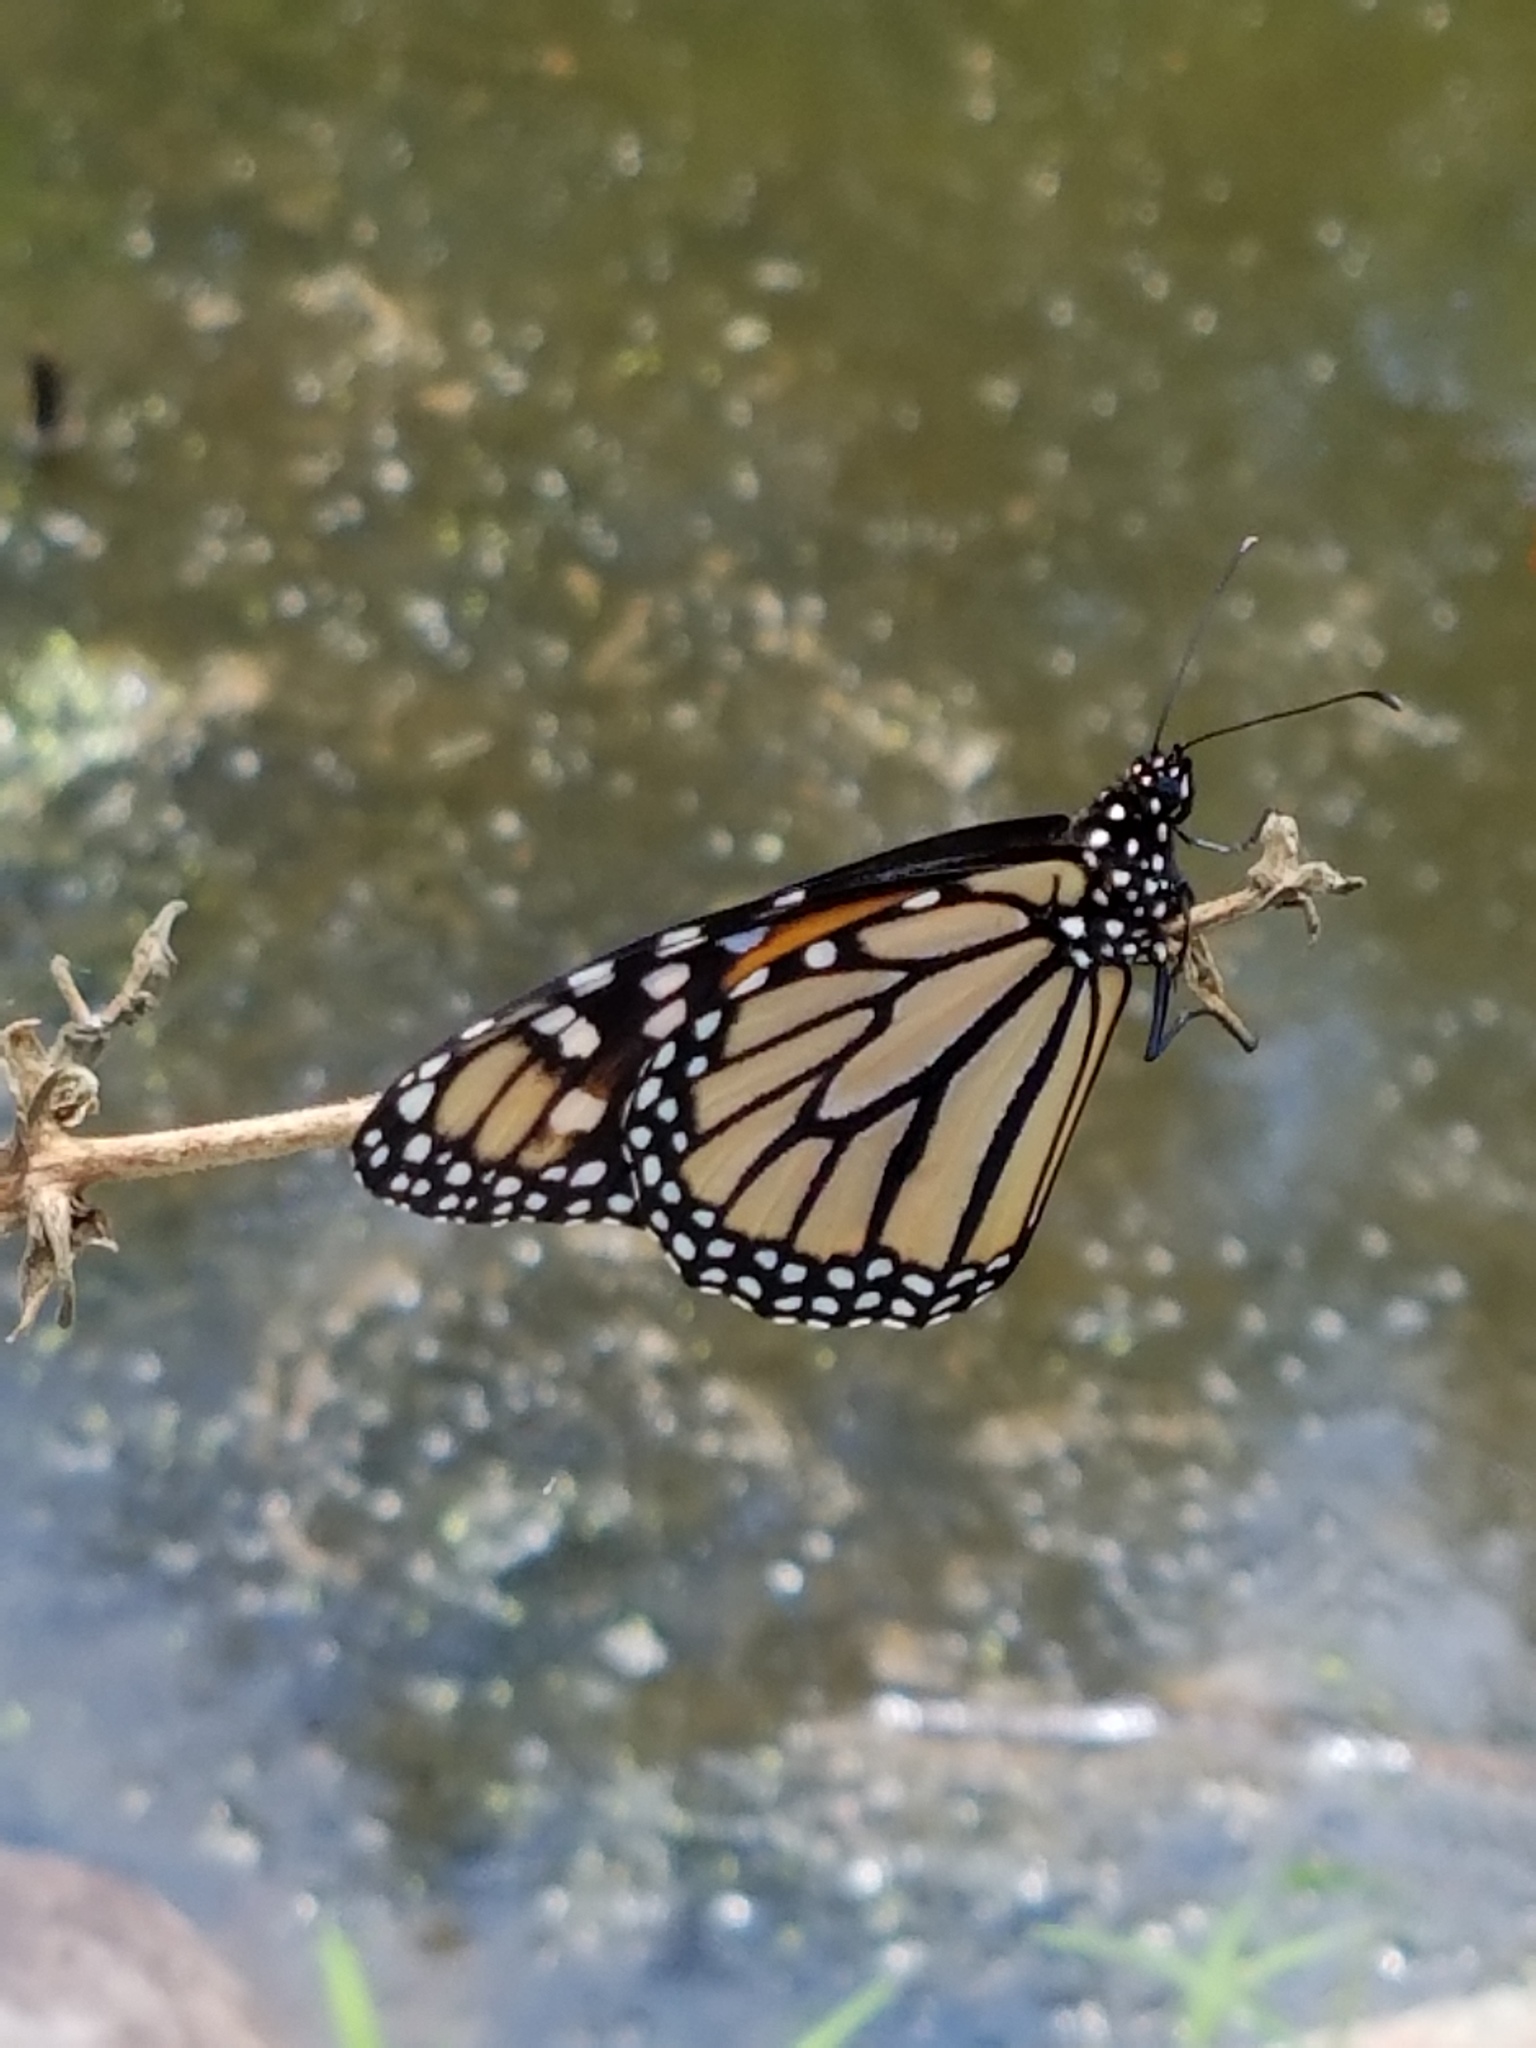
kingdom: Animalia
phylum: Arthropoda
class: Insecta
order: Lepidoptera
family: Nymphalidae
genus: Danaus
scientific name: Danaus plexippus
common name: Monarch
